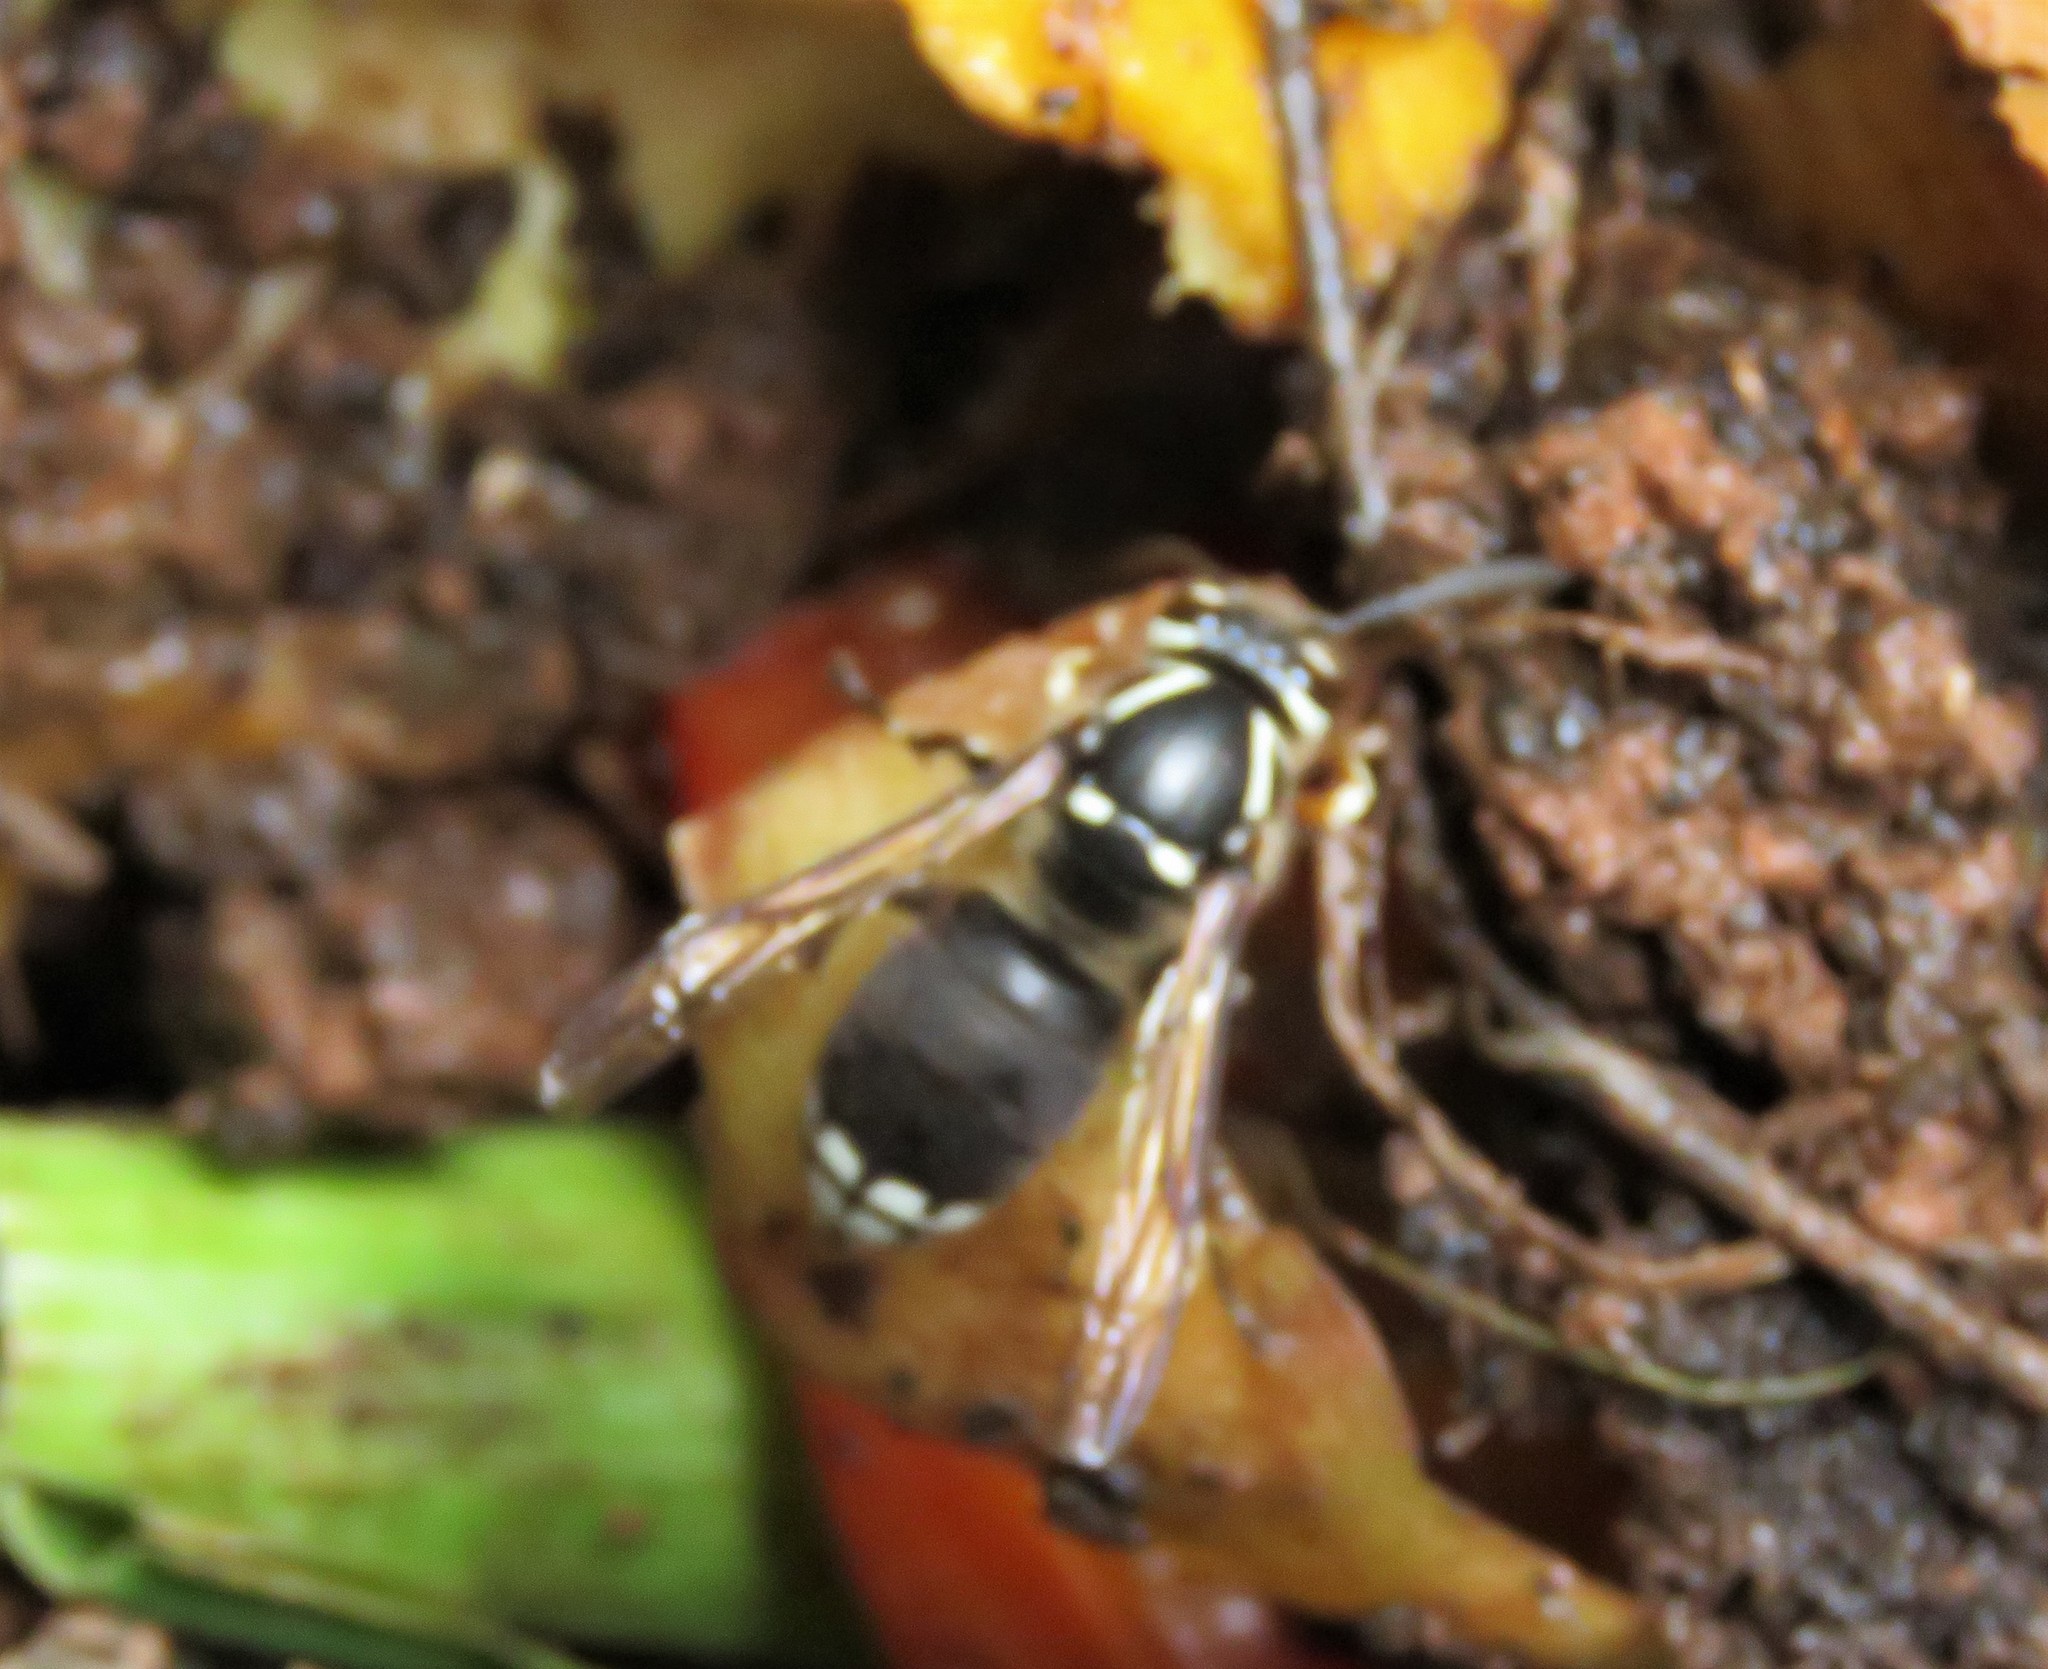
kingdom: Animalia
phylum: Arthropoda
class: Insecta
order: Hymenoptera
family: Vespidae
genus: Dolichovespula
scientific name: Dolichovespula maculata
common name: Bald-faced hornet
